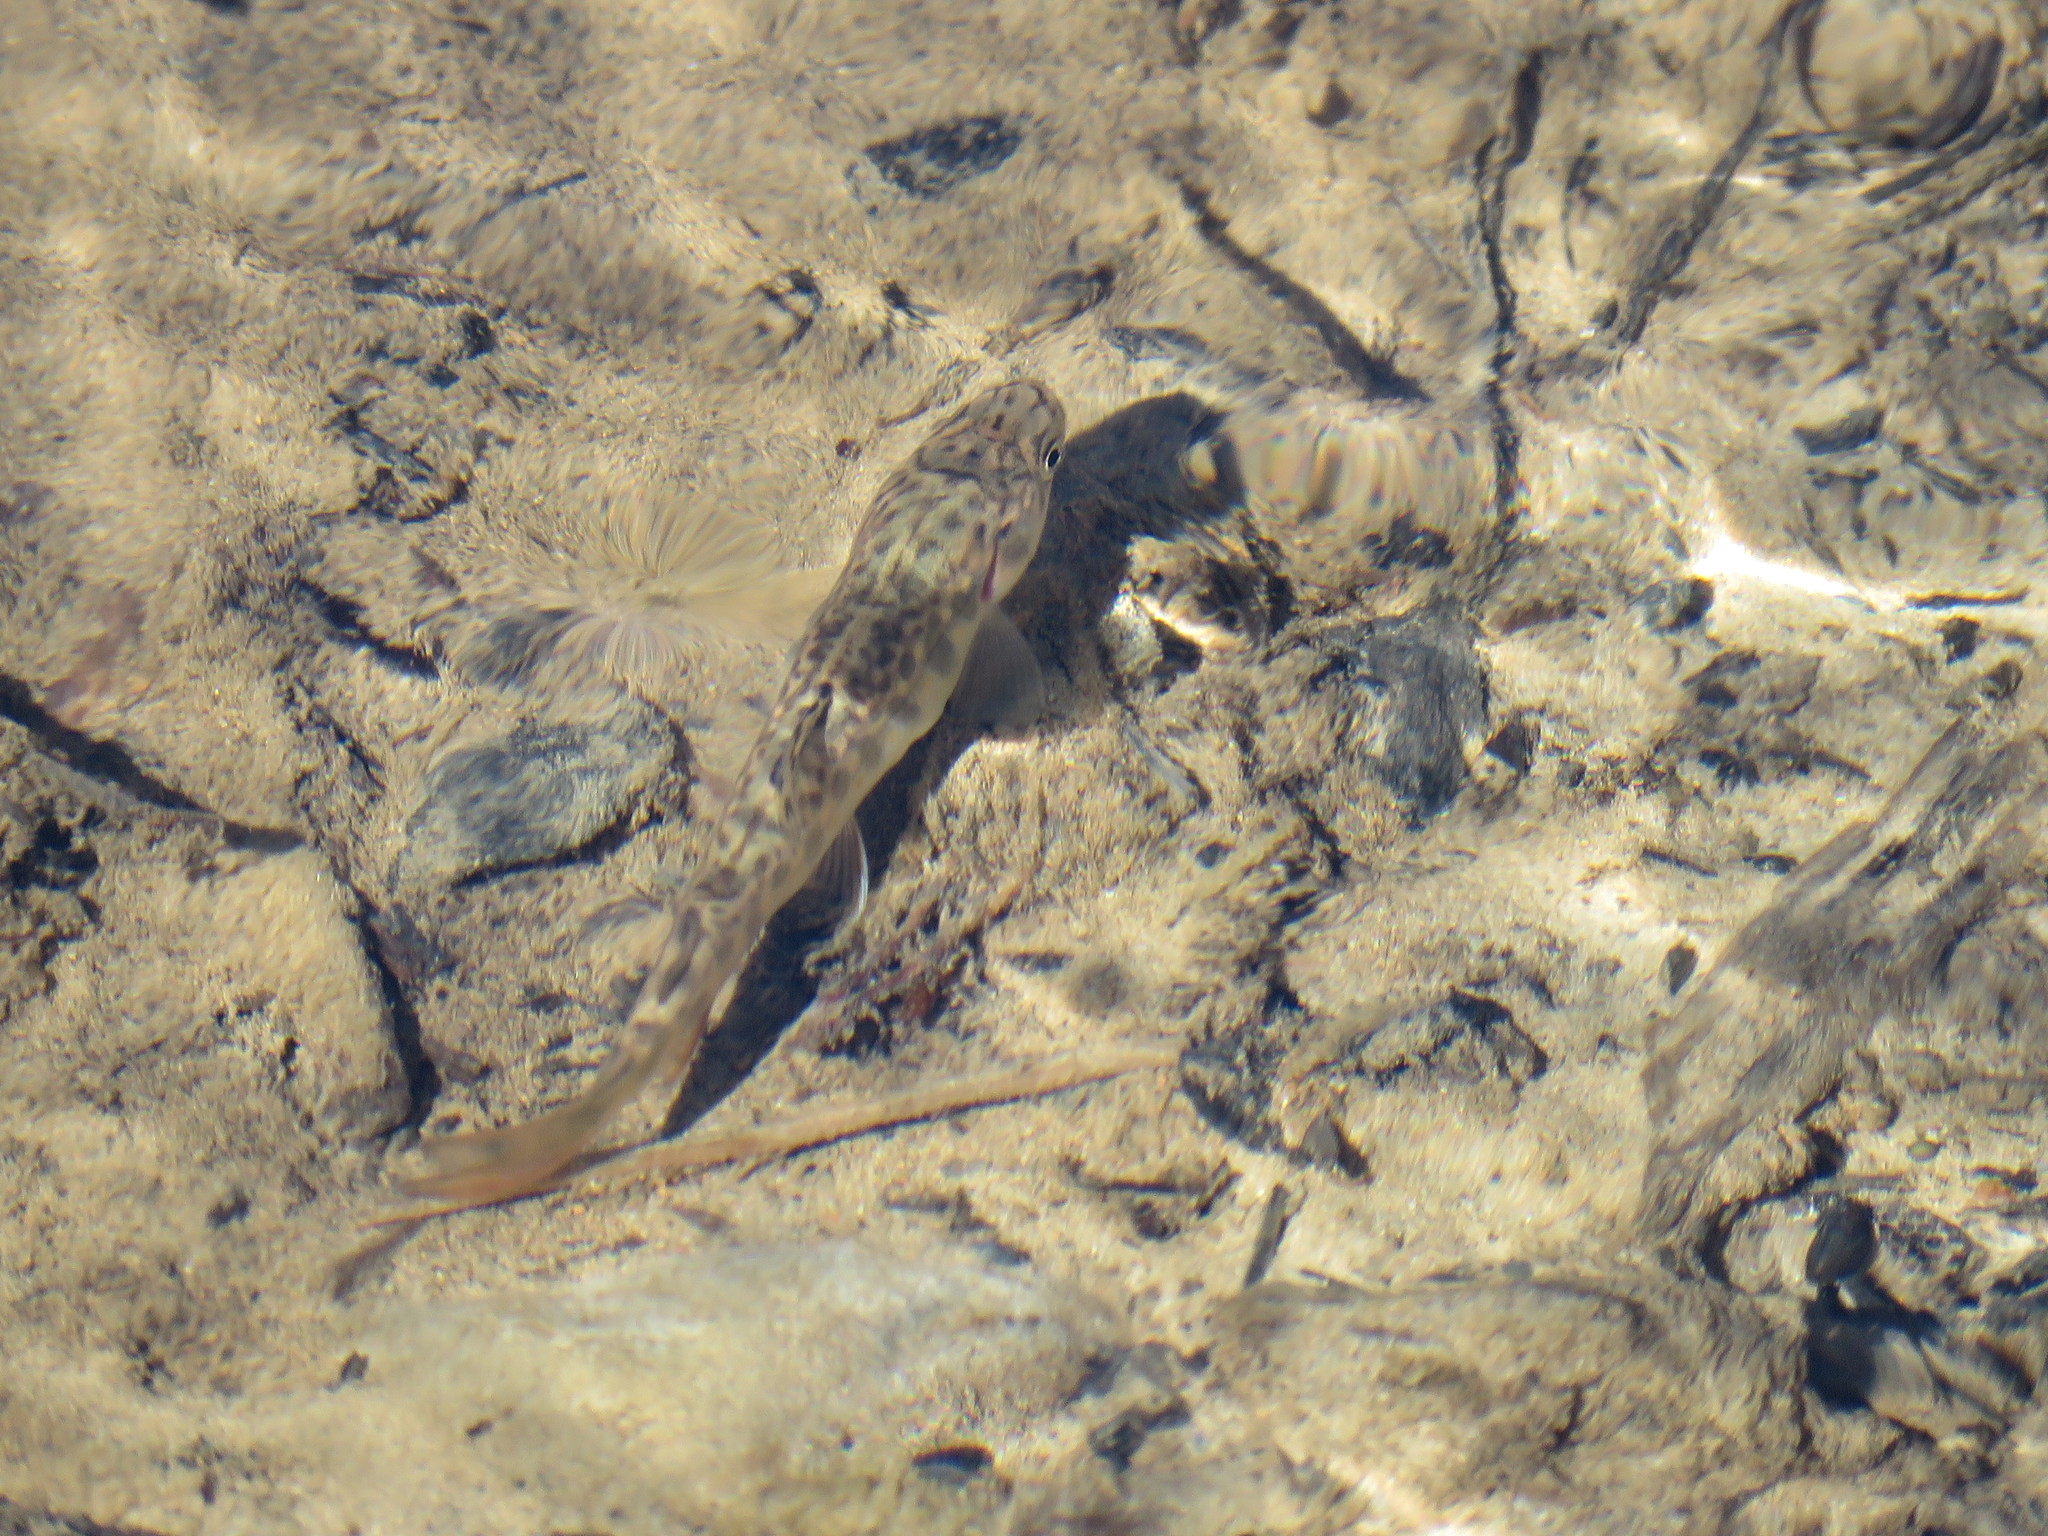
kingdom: Animalia
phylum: Chordata
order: Salmoniformes
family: Salmonidae
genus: Salvelinus
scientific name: Salvelinus fontinalis
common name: Brook trout
